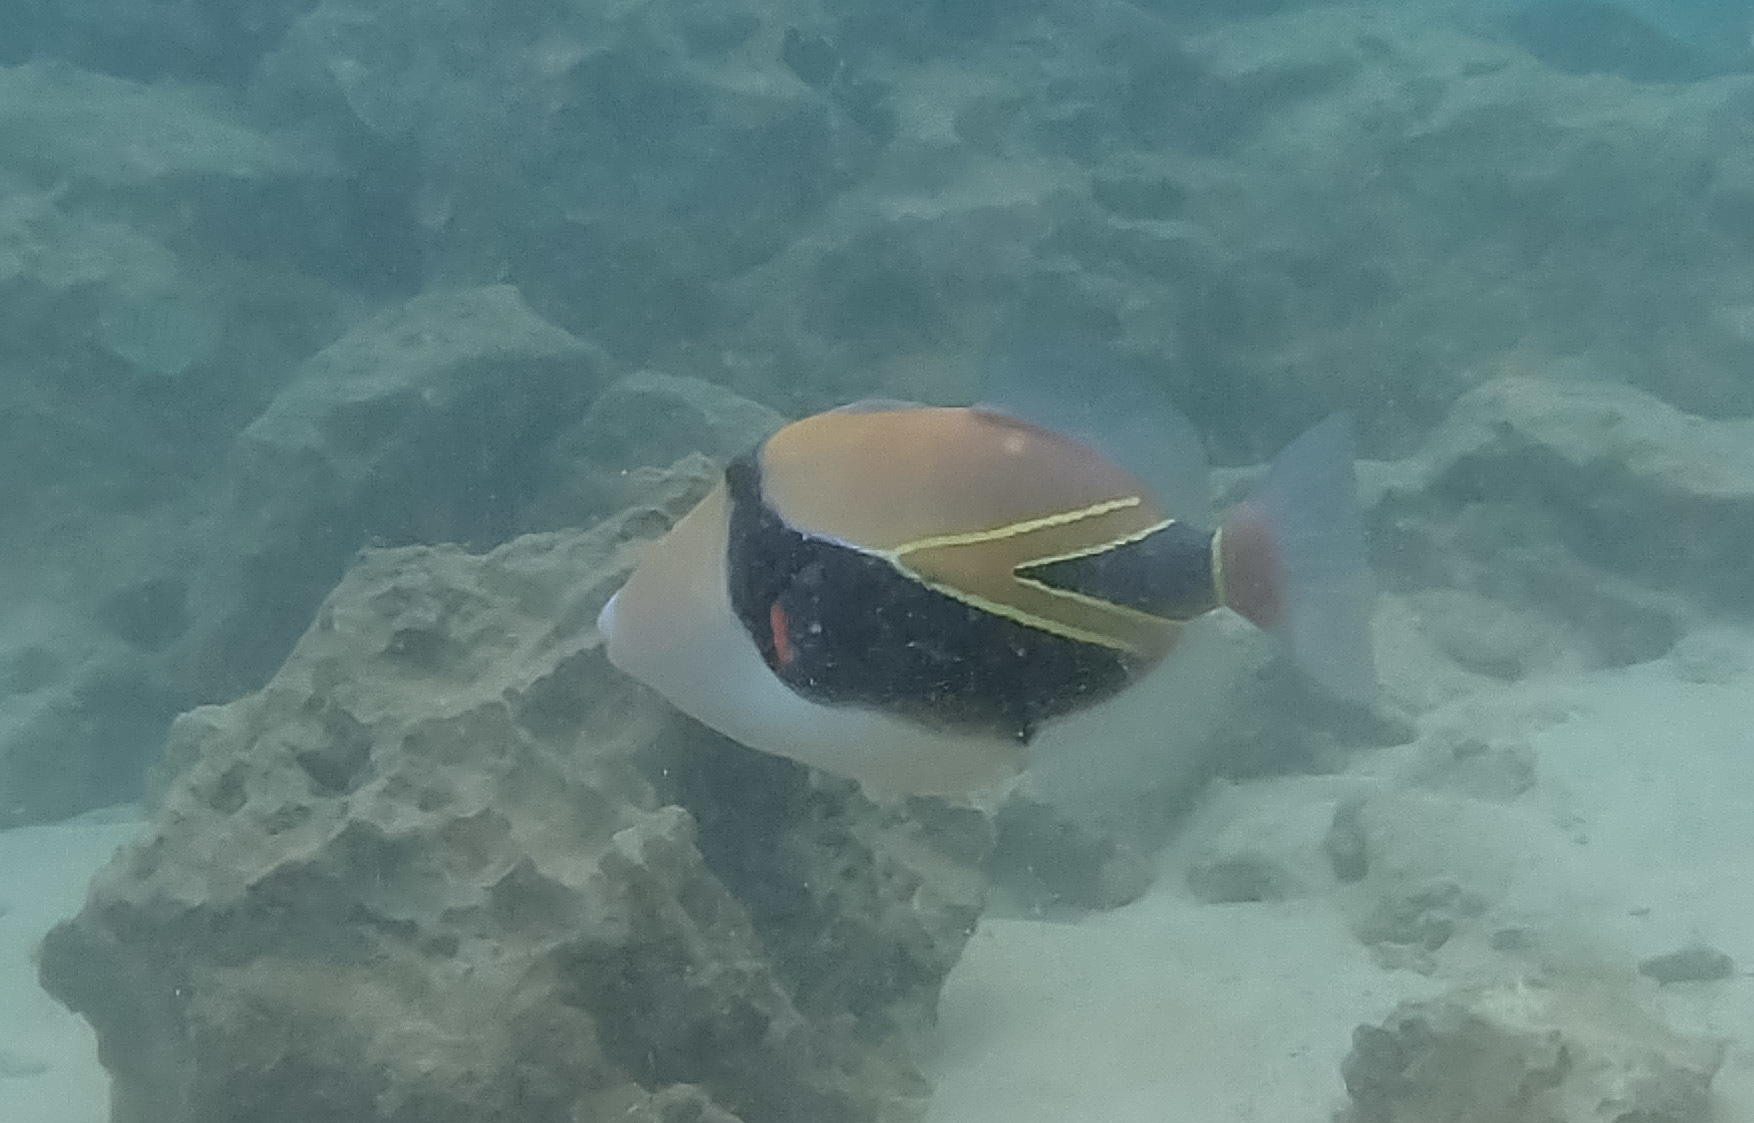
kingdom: Animalia
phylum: Chordata
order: Tetraodontiformes
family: Balistidae
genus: Rhinecanthus
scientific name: Rhinecanthus rectangulus
